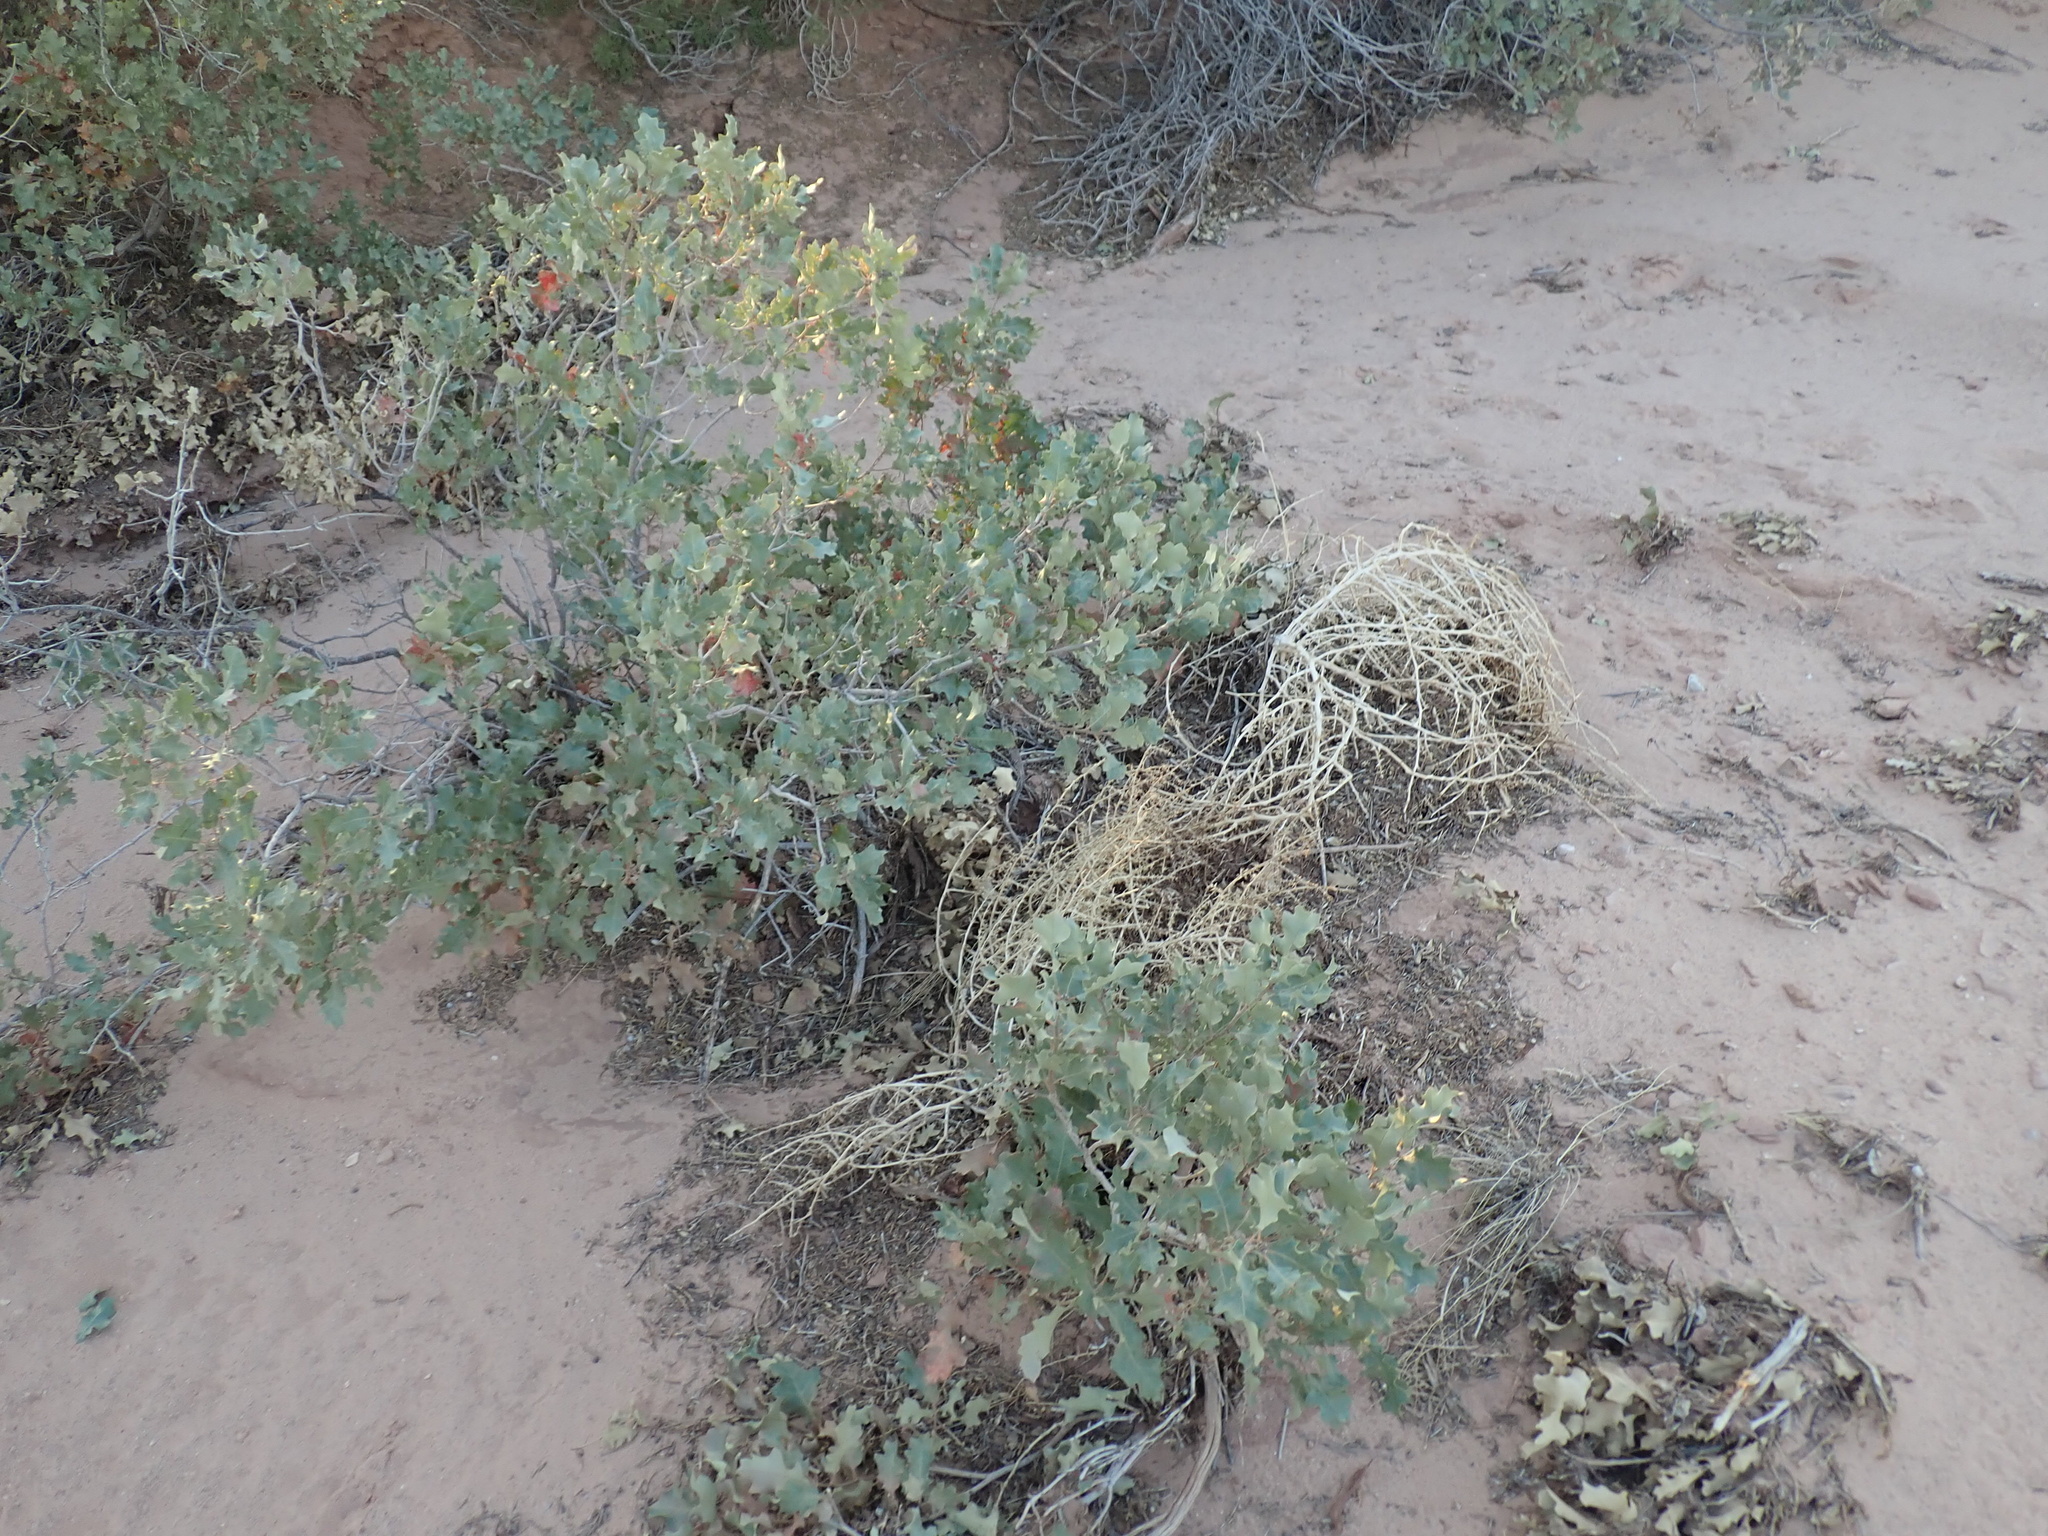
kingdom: Plantae
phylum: Tracheophyta
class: Magnoliopsida
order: Fagales
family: Fagaceae
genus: Quercus
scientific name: Quercus welshii
